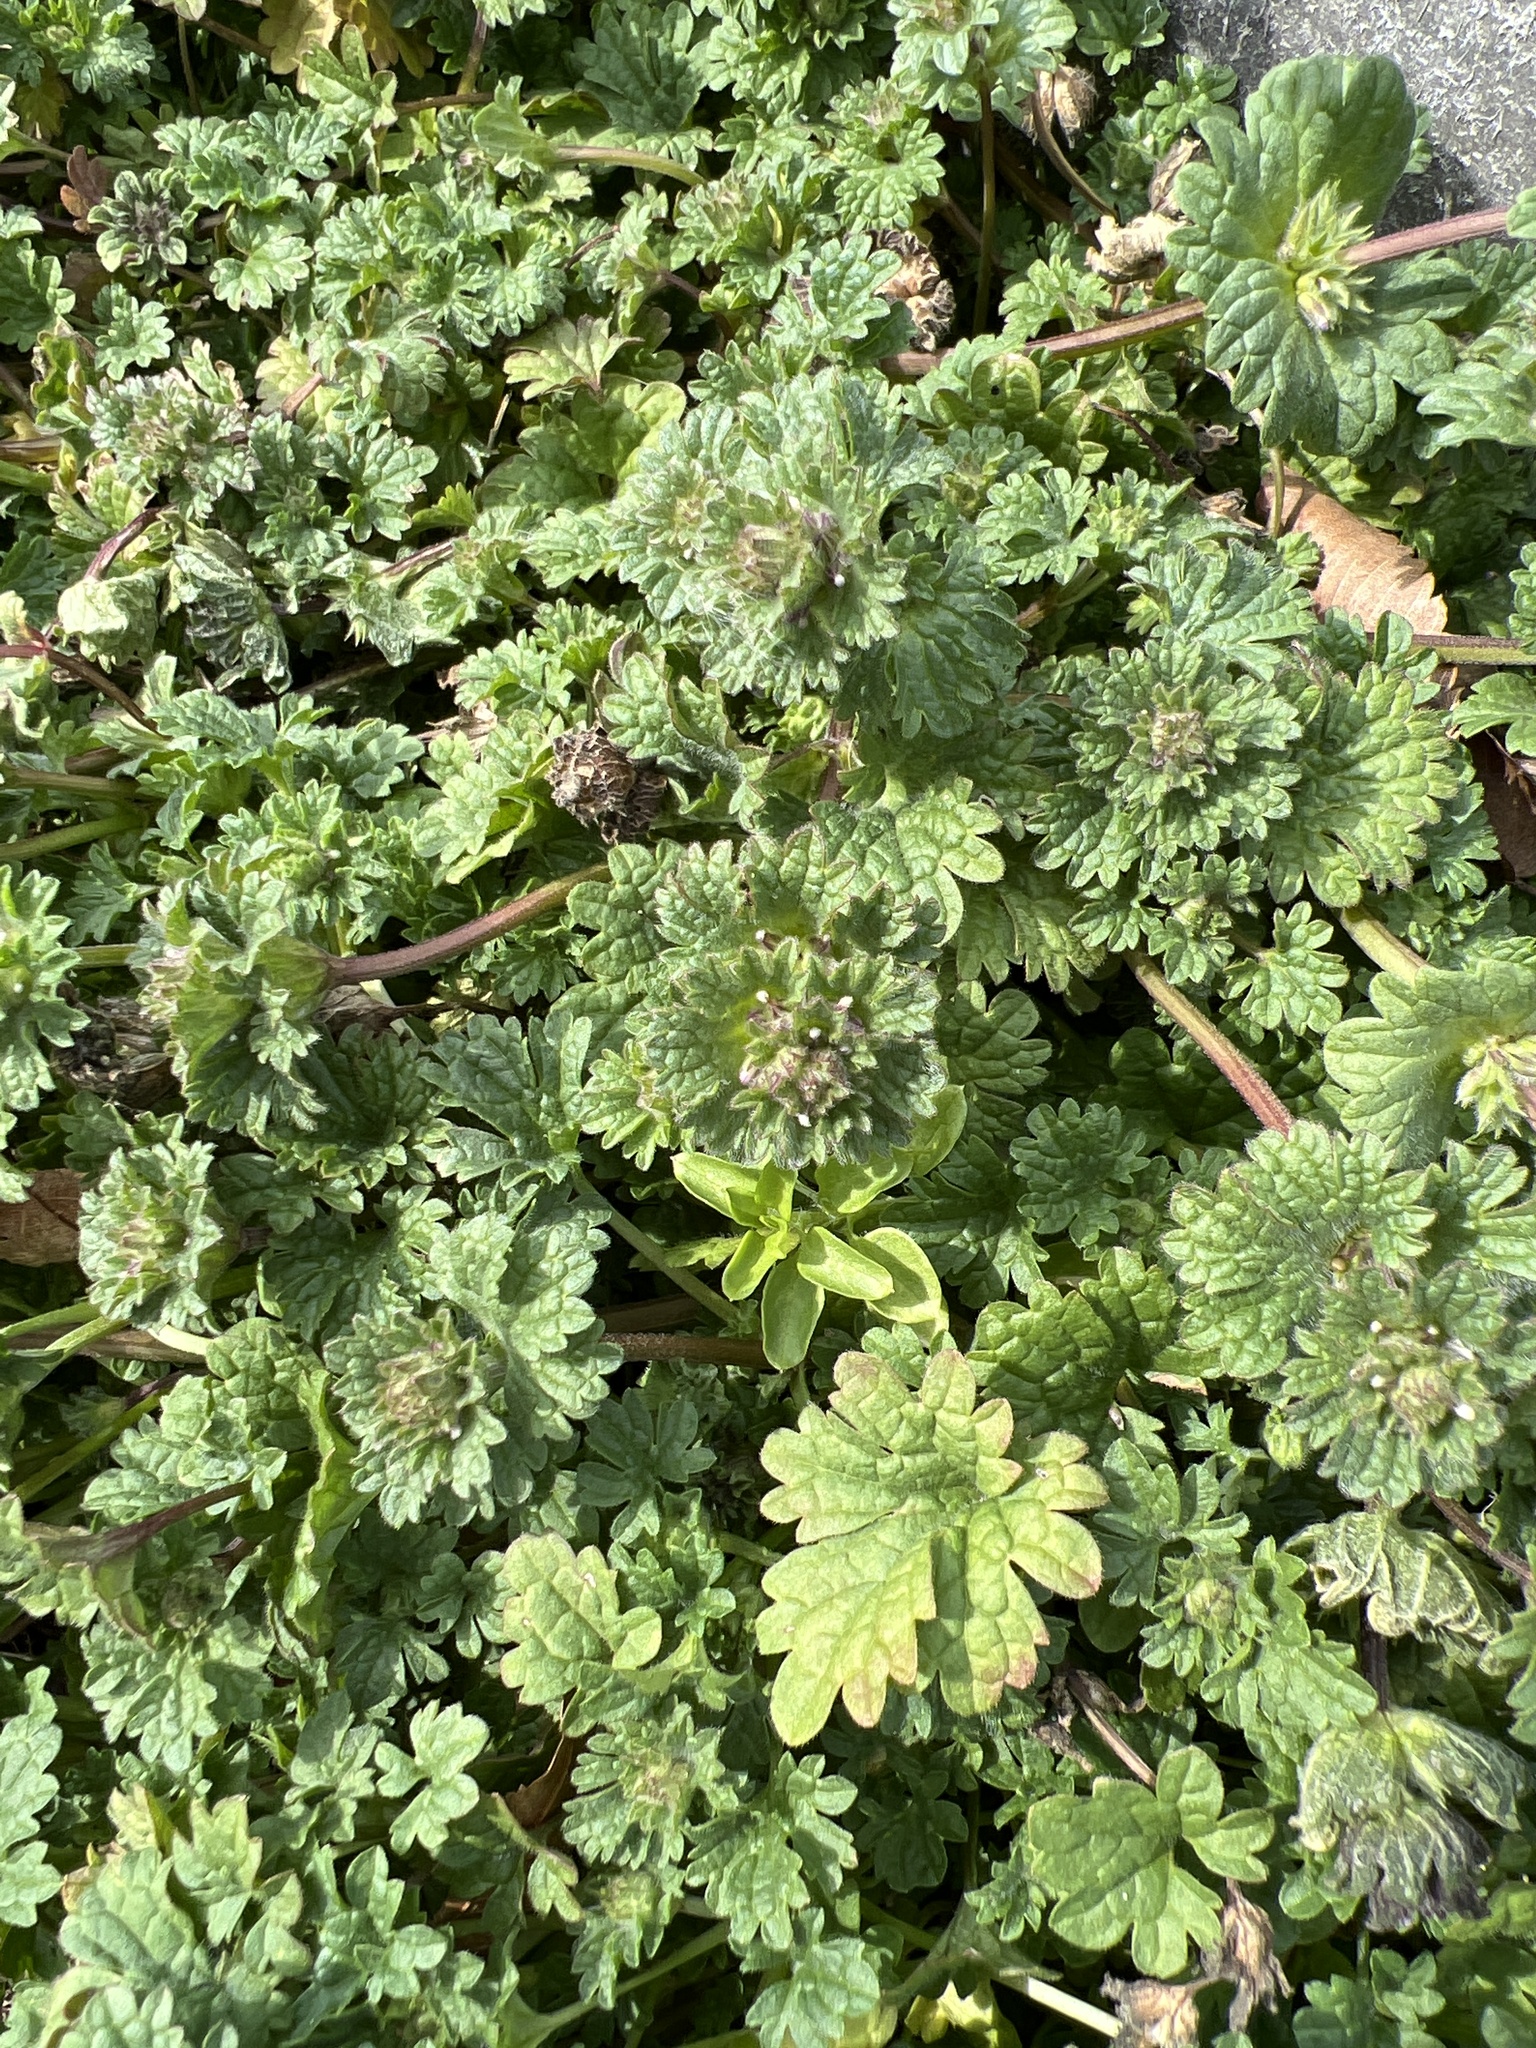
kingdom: Plantae
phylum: Tracheophyta
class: Magnoliopsida
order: Lamiales
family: Lamiaceae
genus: Lamium
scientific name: Lamium amplexicaule
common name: Henbit dead-nettle
